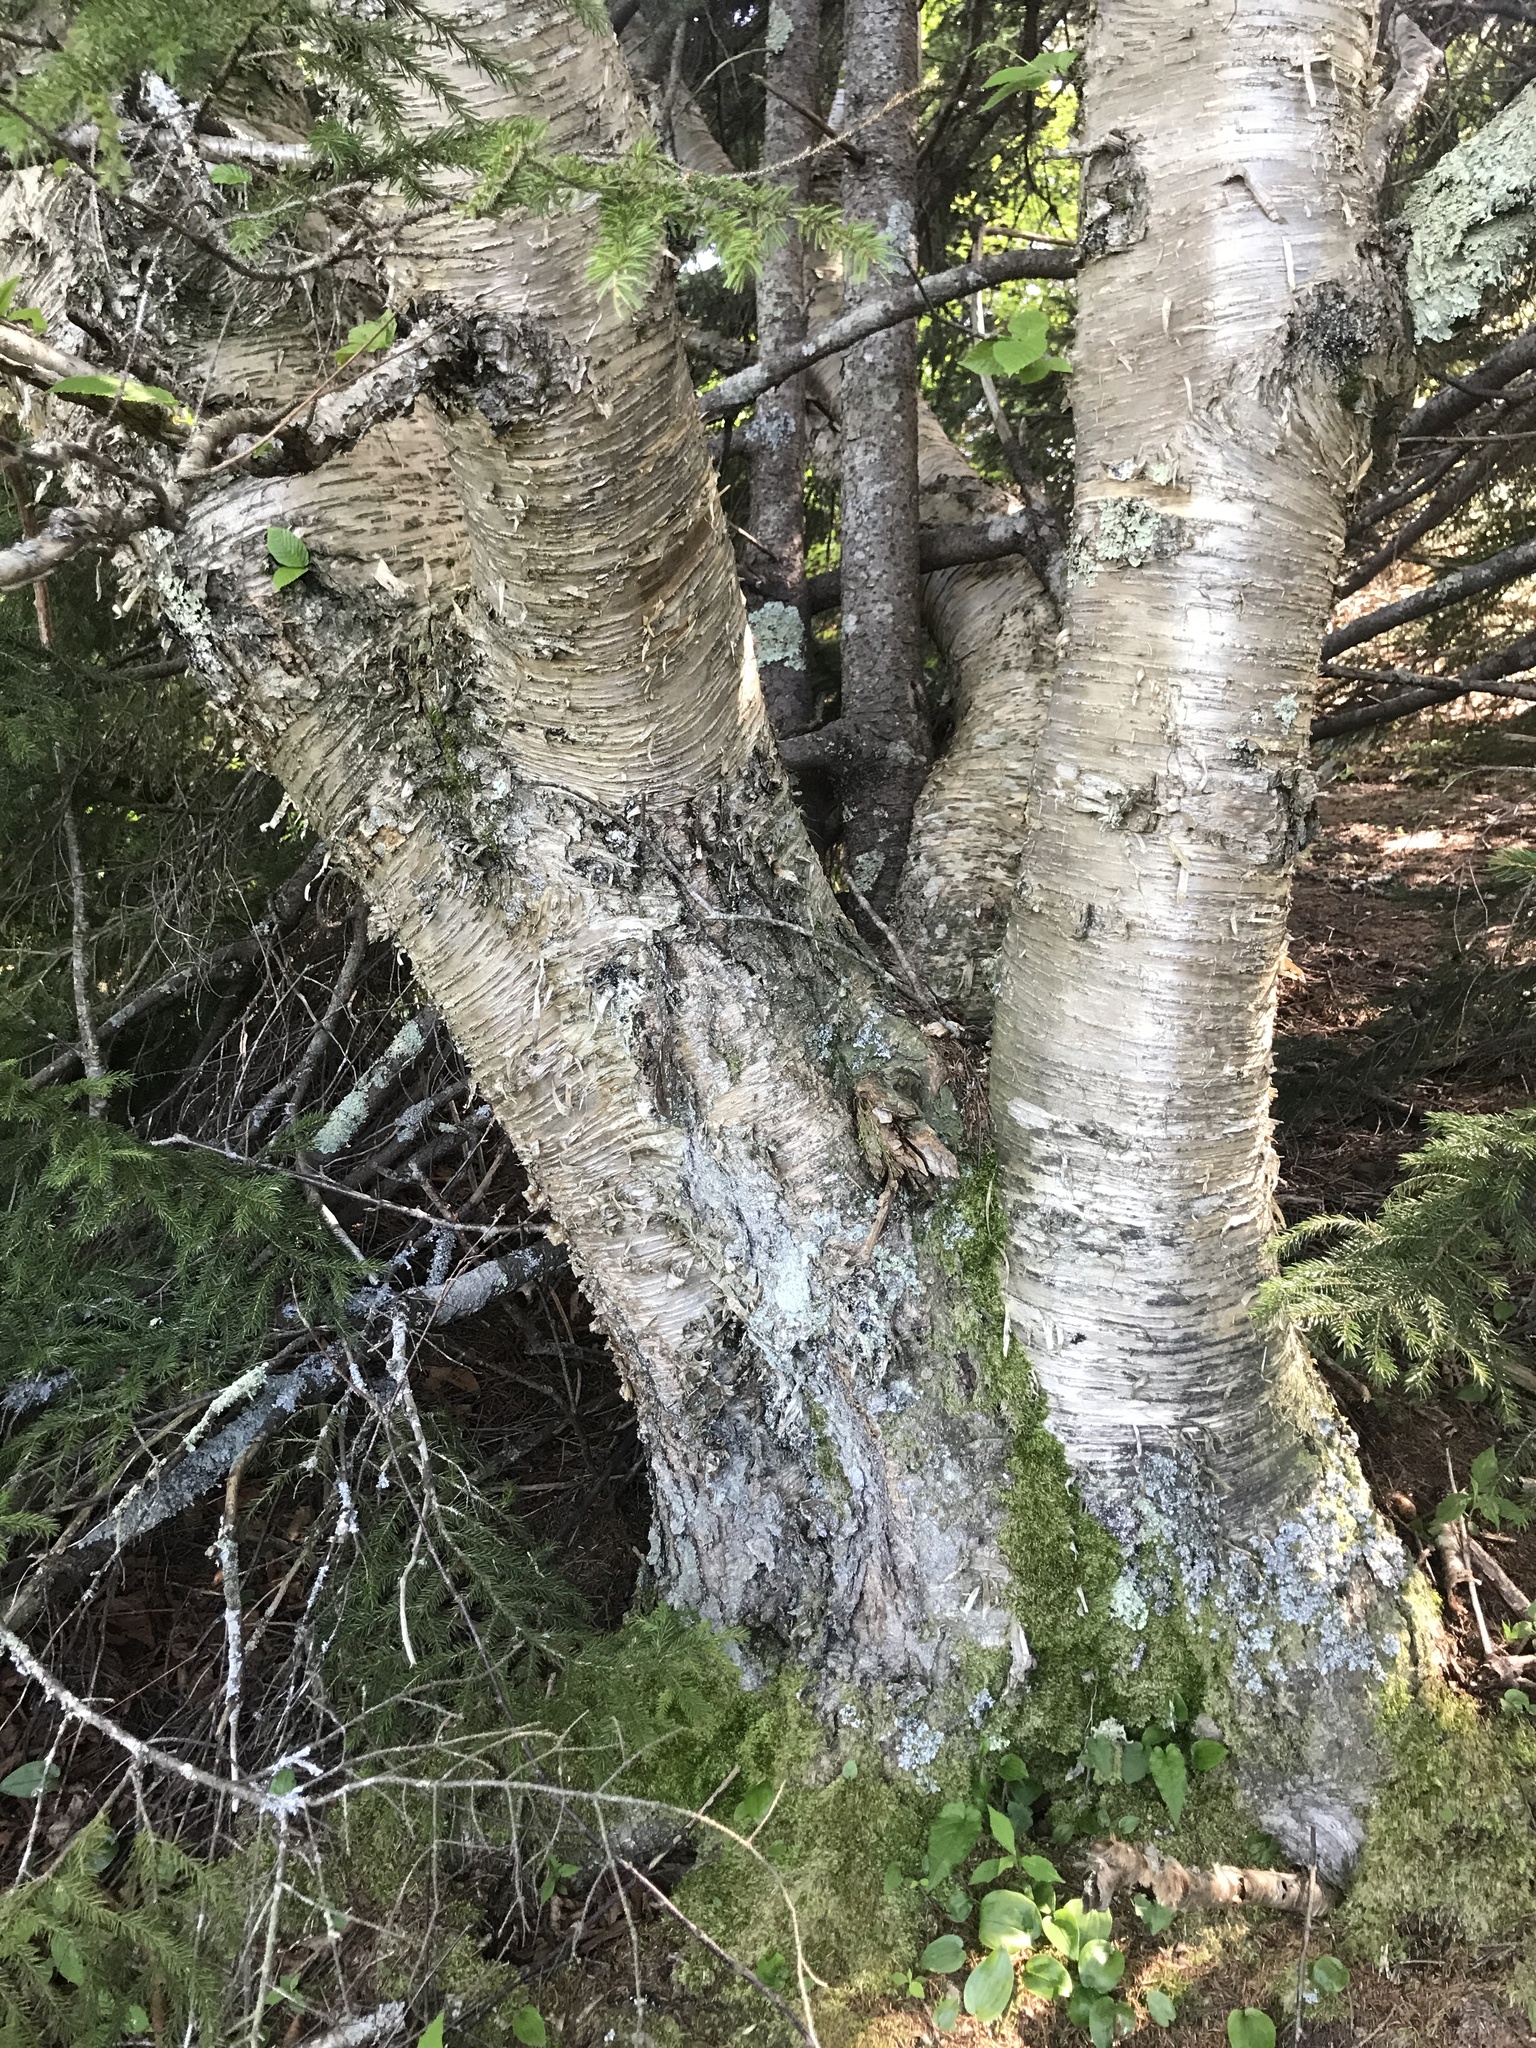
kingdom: Plantae
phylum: Tracheophyta
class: Magnoliopsida
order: Fagales
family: Betulaceae
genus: Betula
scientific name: Betula alleghaniensis
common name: Yellow birch
